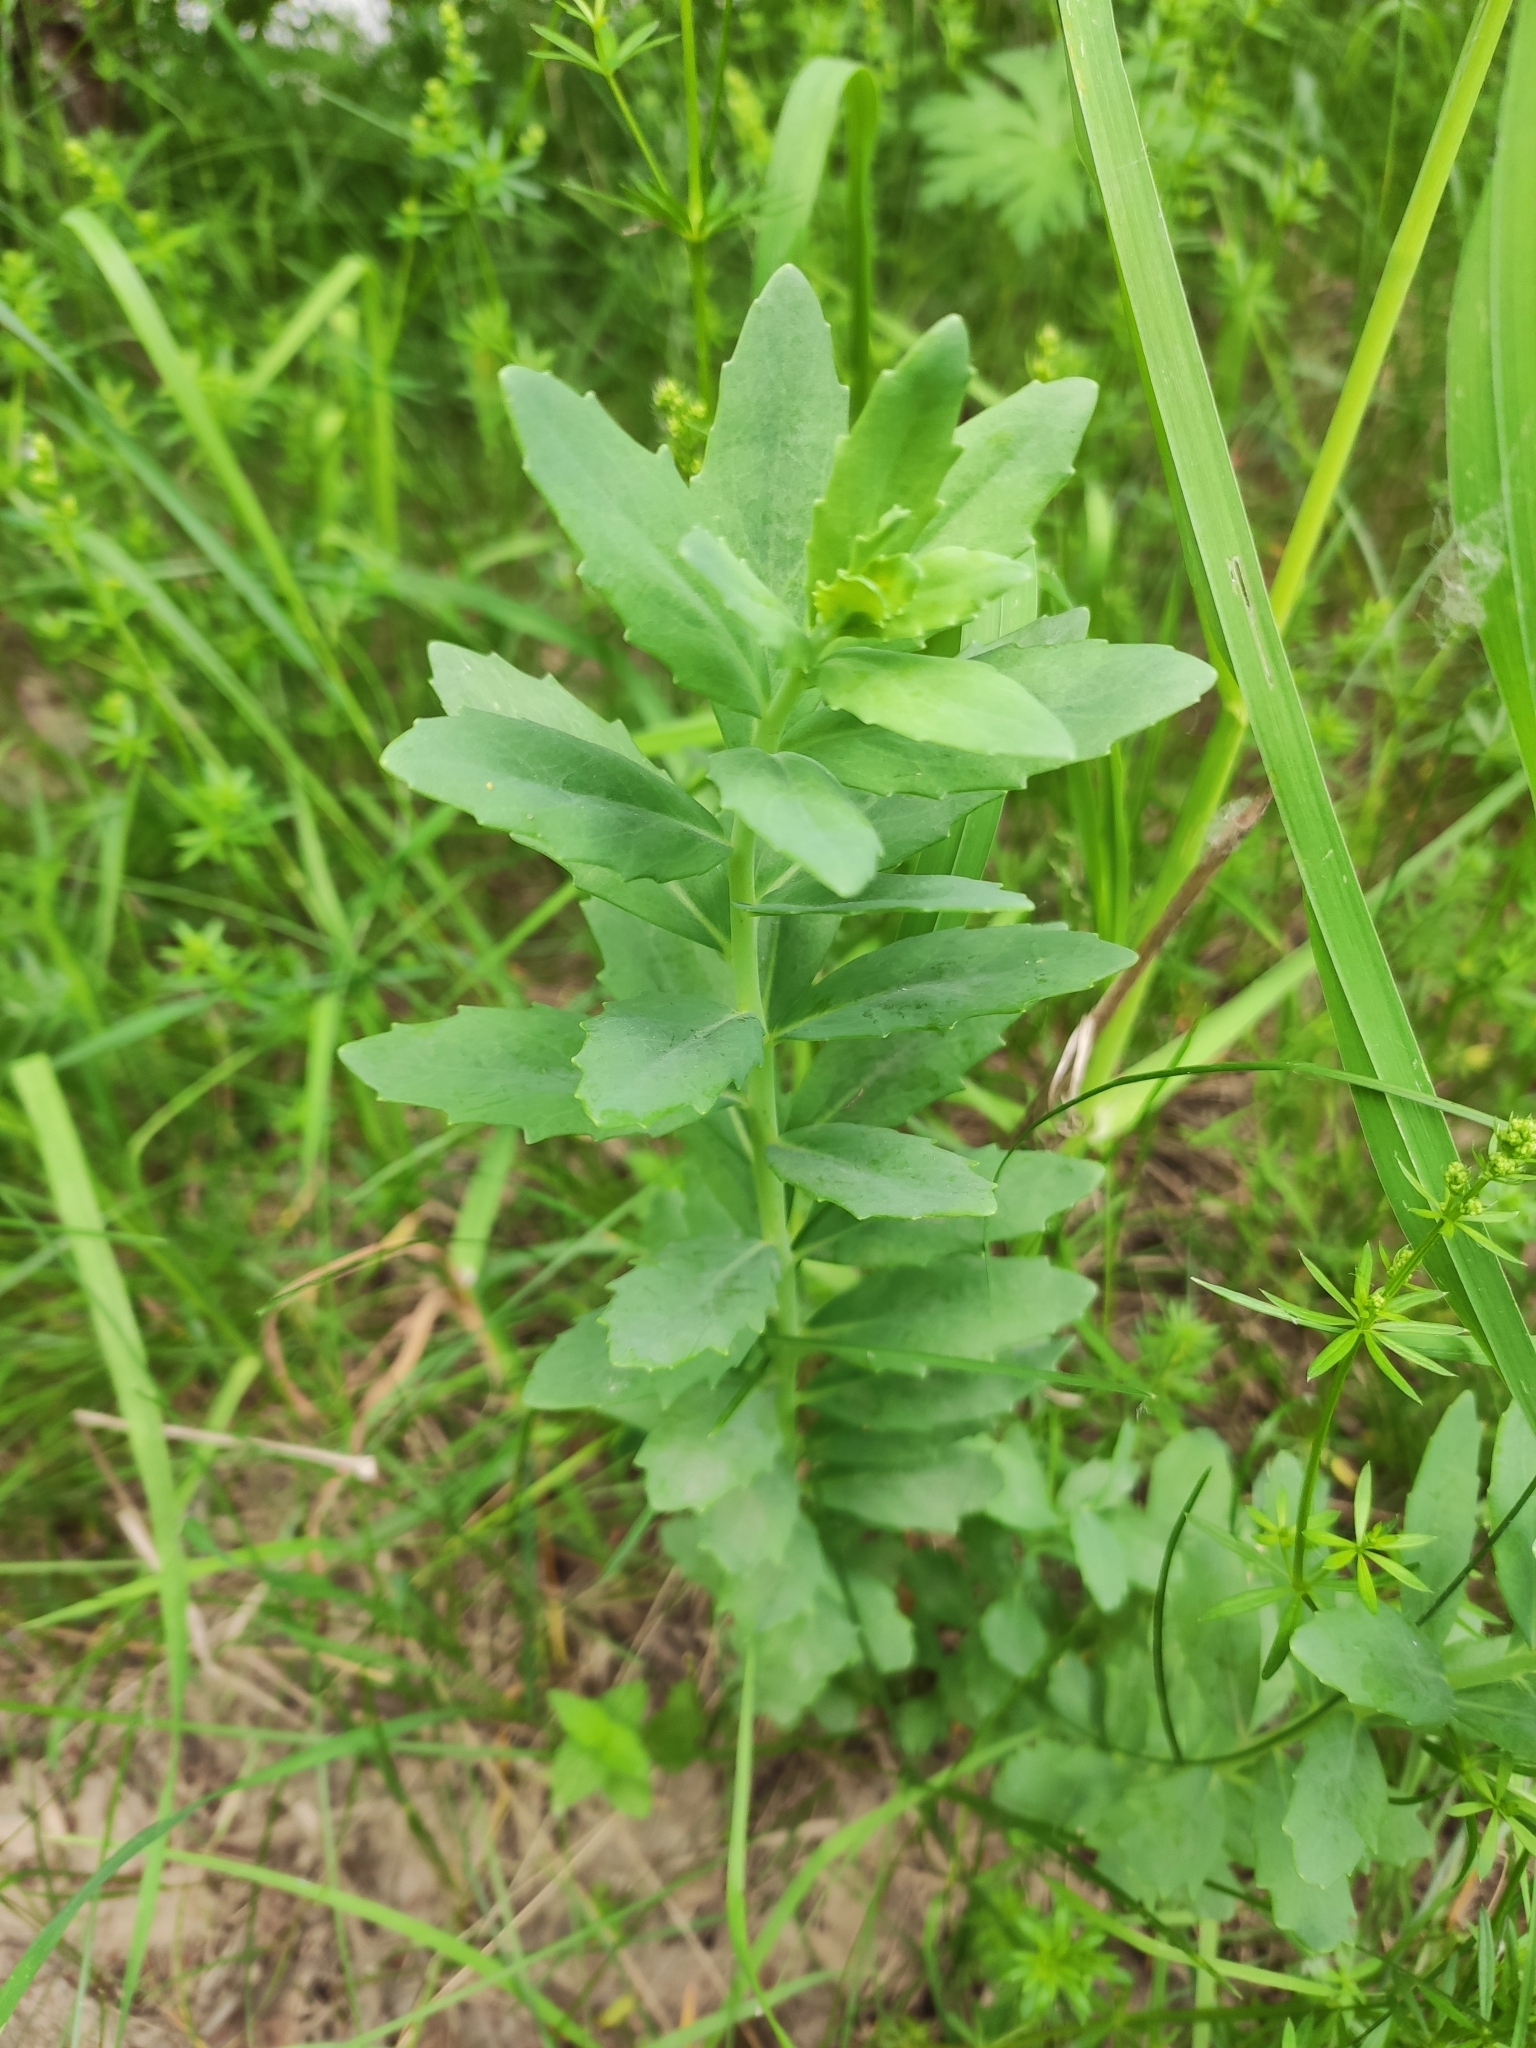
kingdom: Plantae
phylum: Tracheophyta
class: Magnoliopsida
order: Saxifragales
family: Crassulaceae
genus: Hylotelephium
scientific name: Hylotelephium telephium
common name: Live-forever
